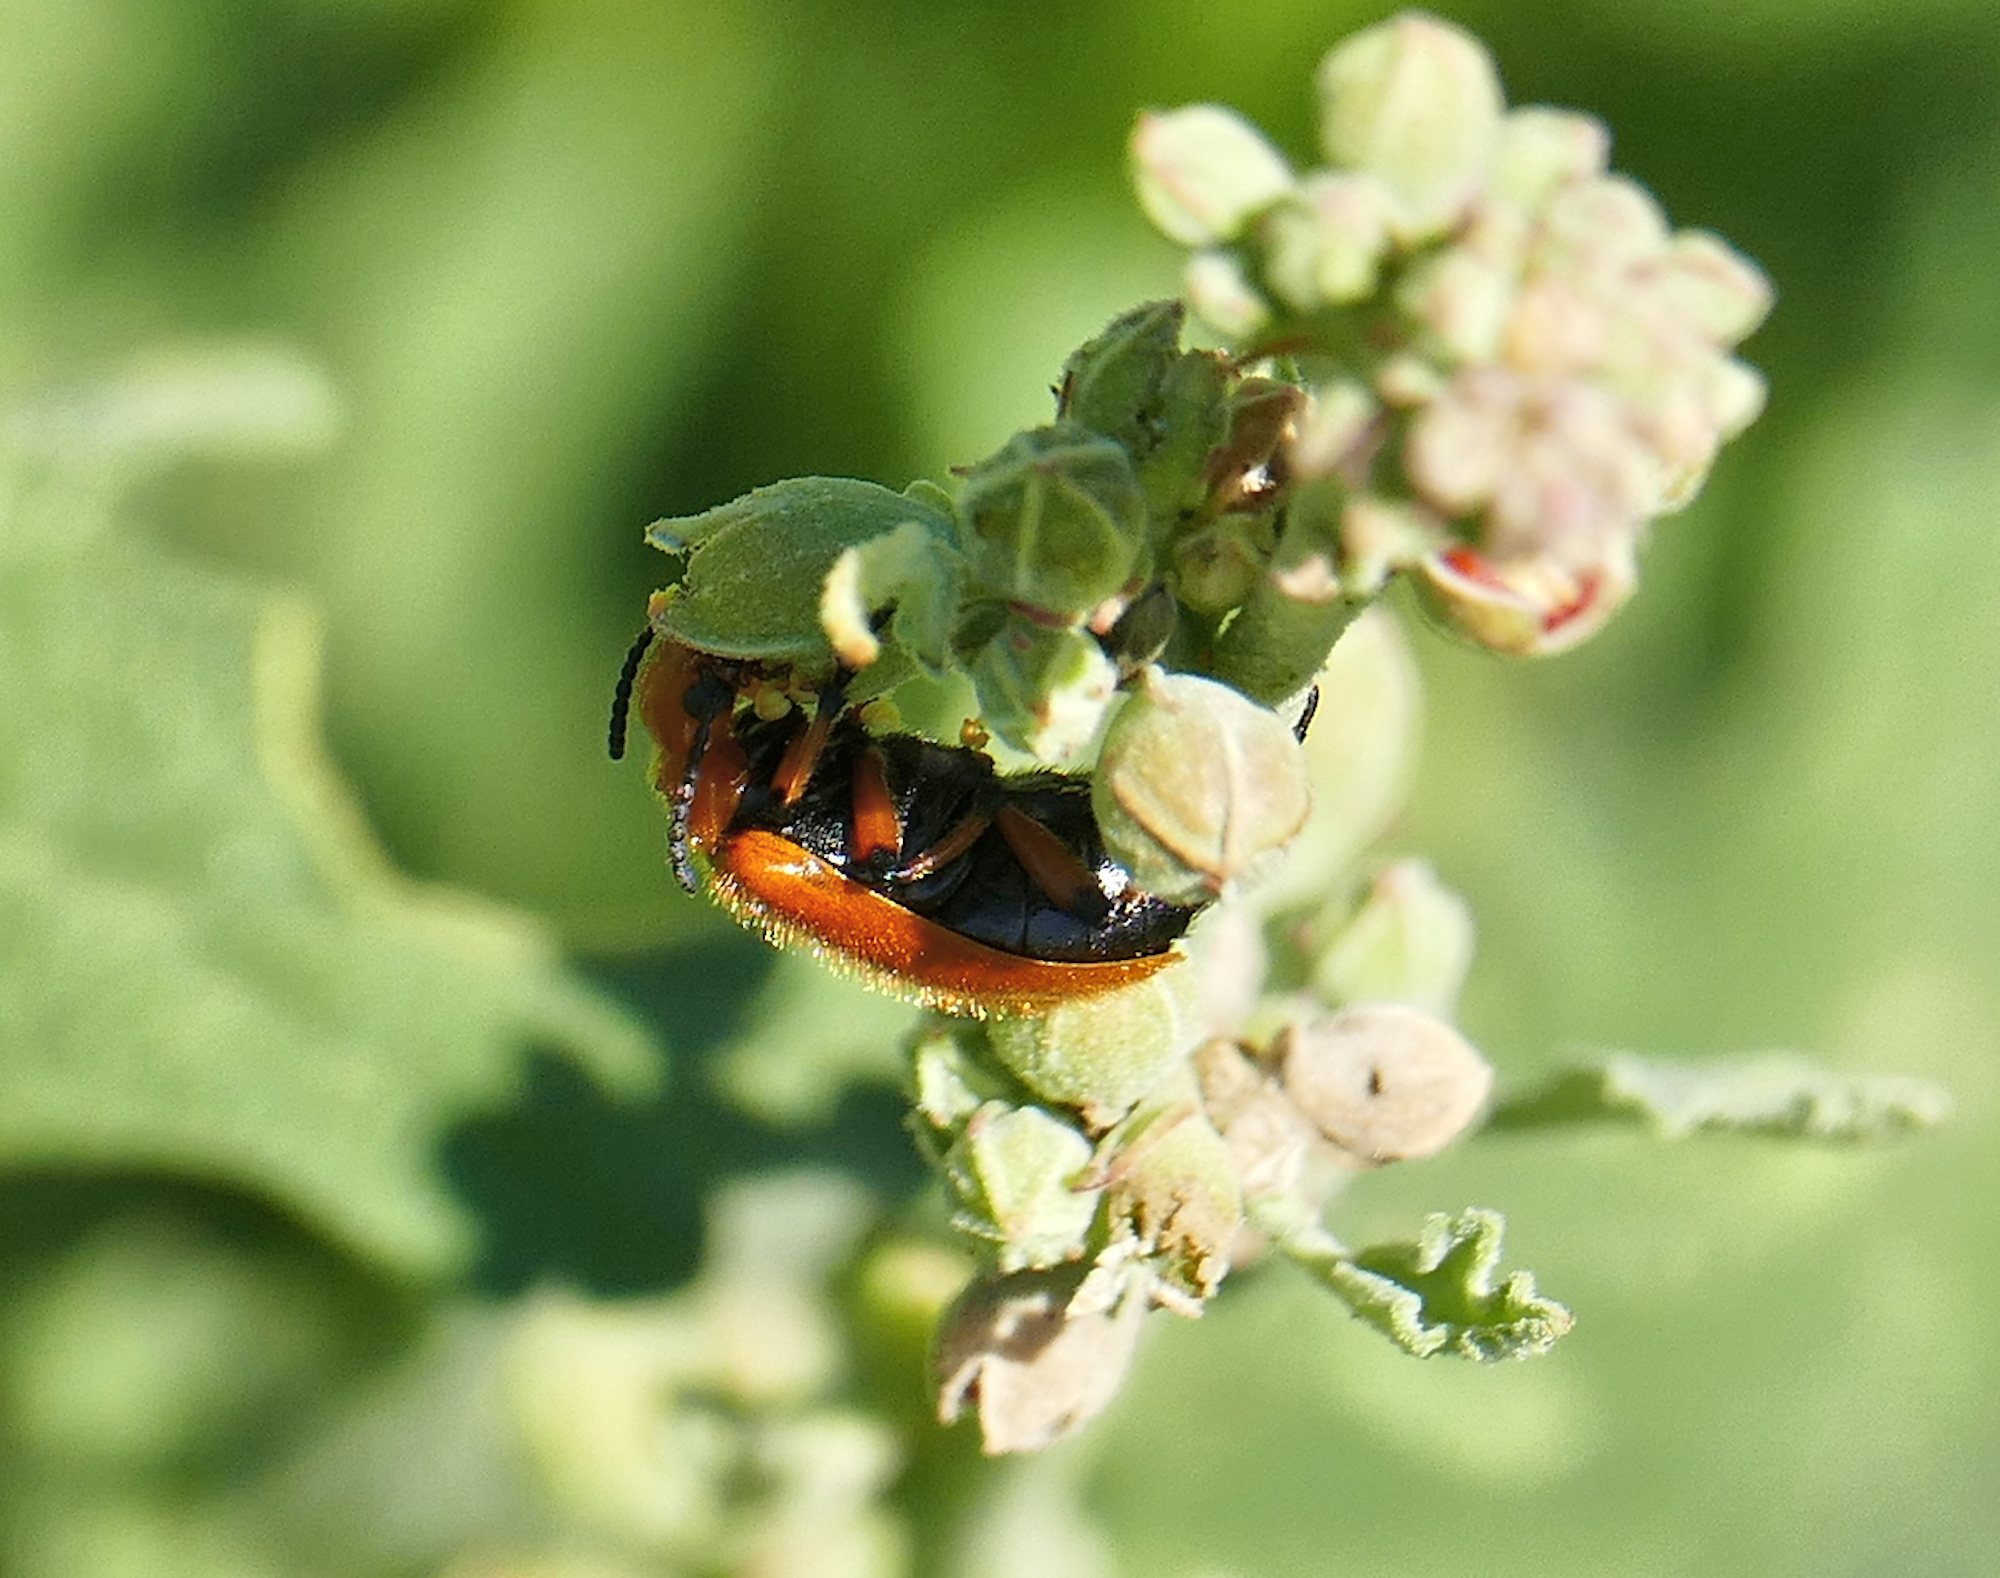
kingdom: Animalia
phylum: Arthropoda
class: Insecta
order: Coleoptera
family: Meloidae
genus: Tetraonyx
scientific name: Tetraonyx fulva
